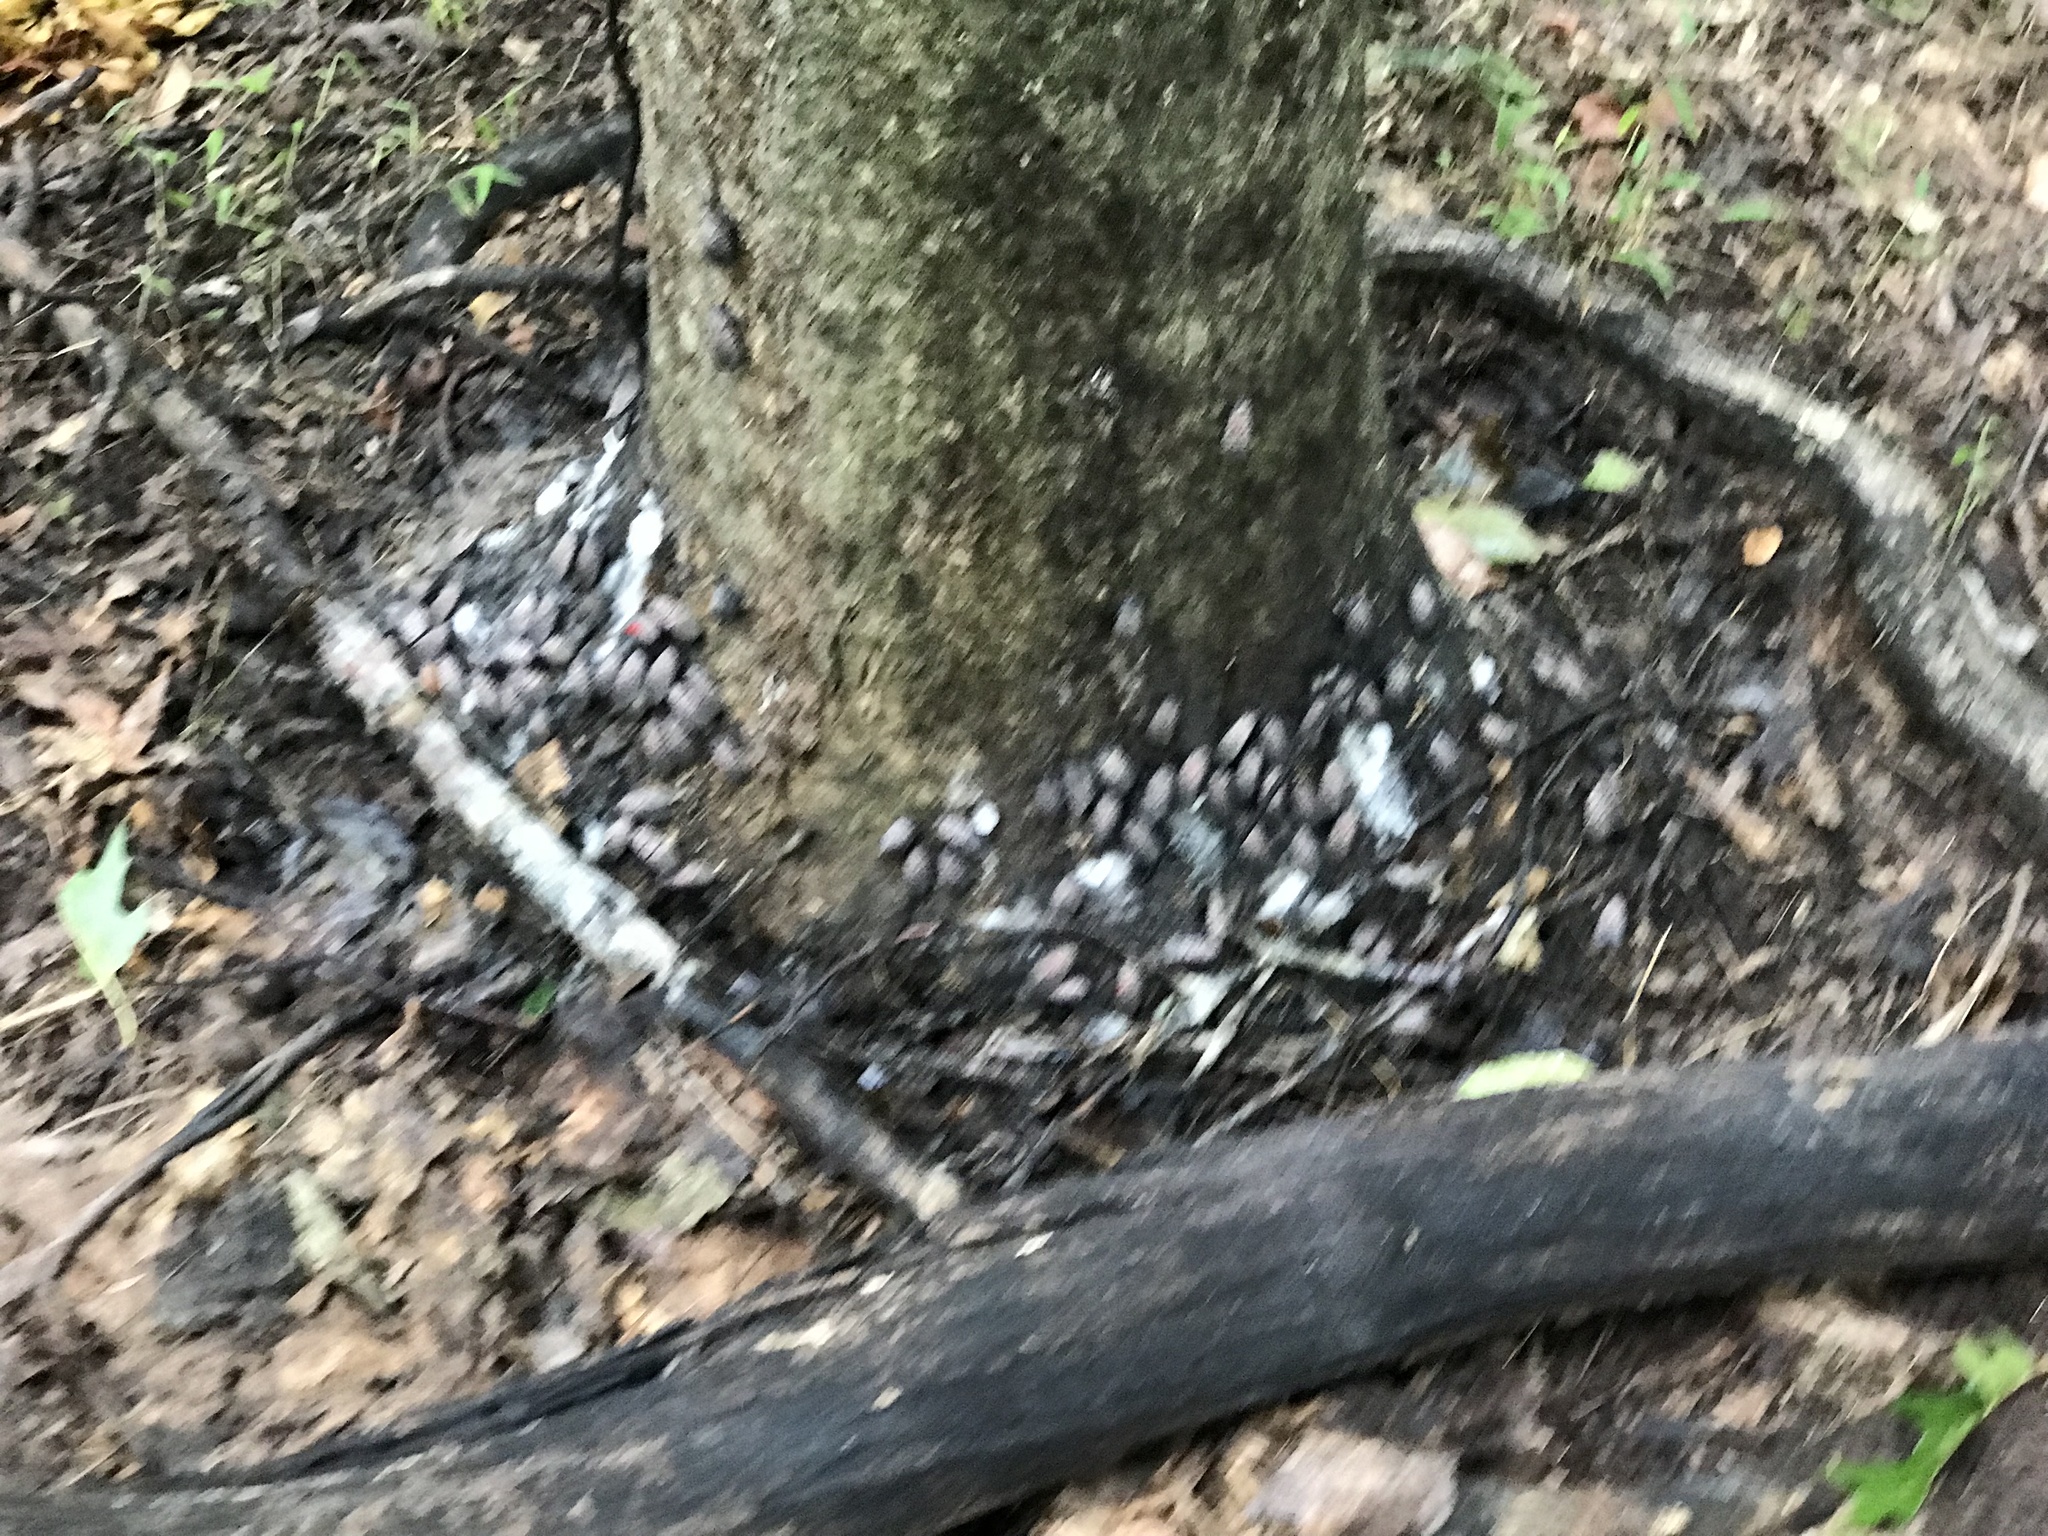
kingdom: Animalia
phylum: Arthropoda
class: Insecta
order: Hemiptera
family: Fulgoridae
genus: Lycorma
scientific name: Lycorma delicatula
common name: Spotted lanternfly
